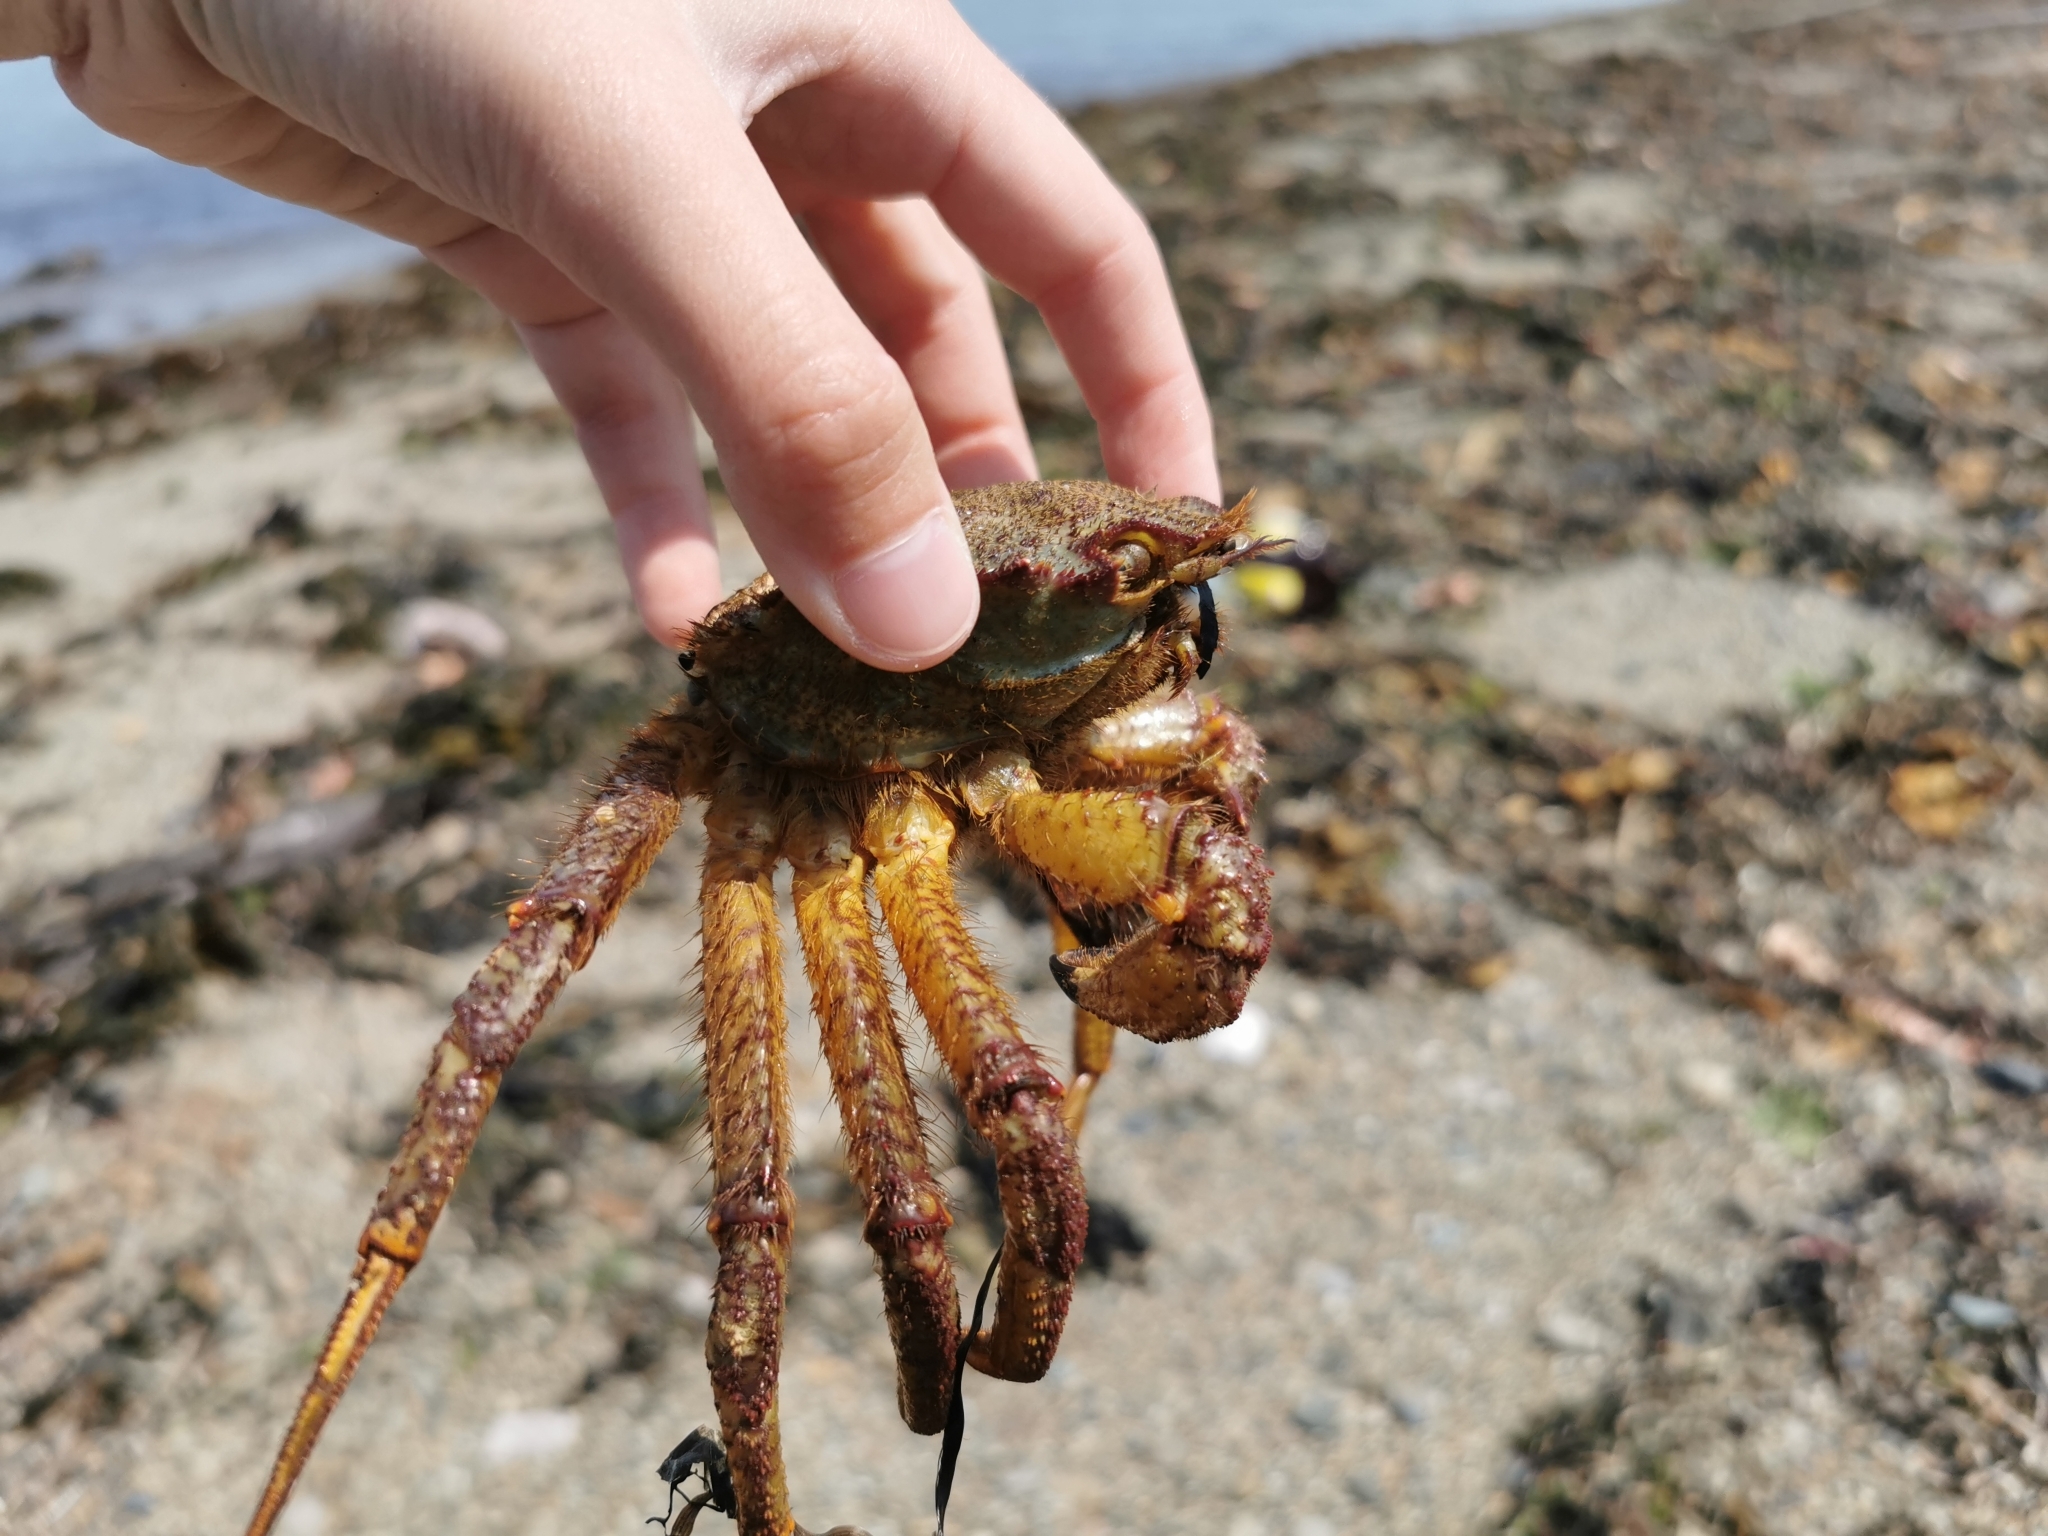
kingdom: Animalia
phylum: Arthropoda
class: Malacostraca
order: Decapoda
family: Cheiragonidae
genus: Telmessus
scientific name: Telmessus cheiragonus
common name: Helmet crab
